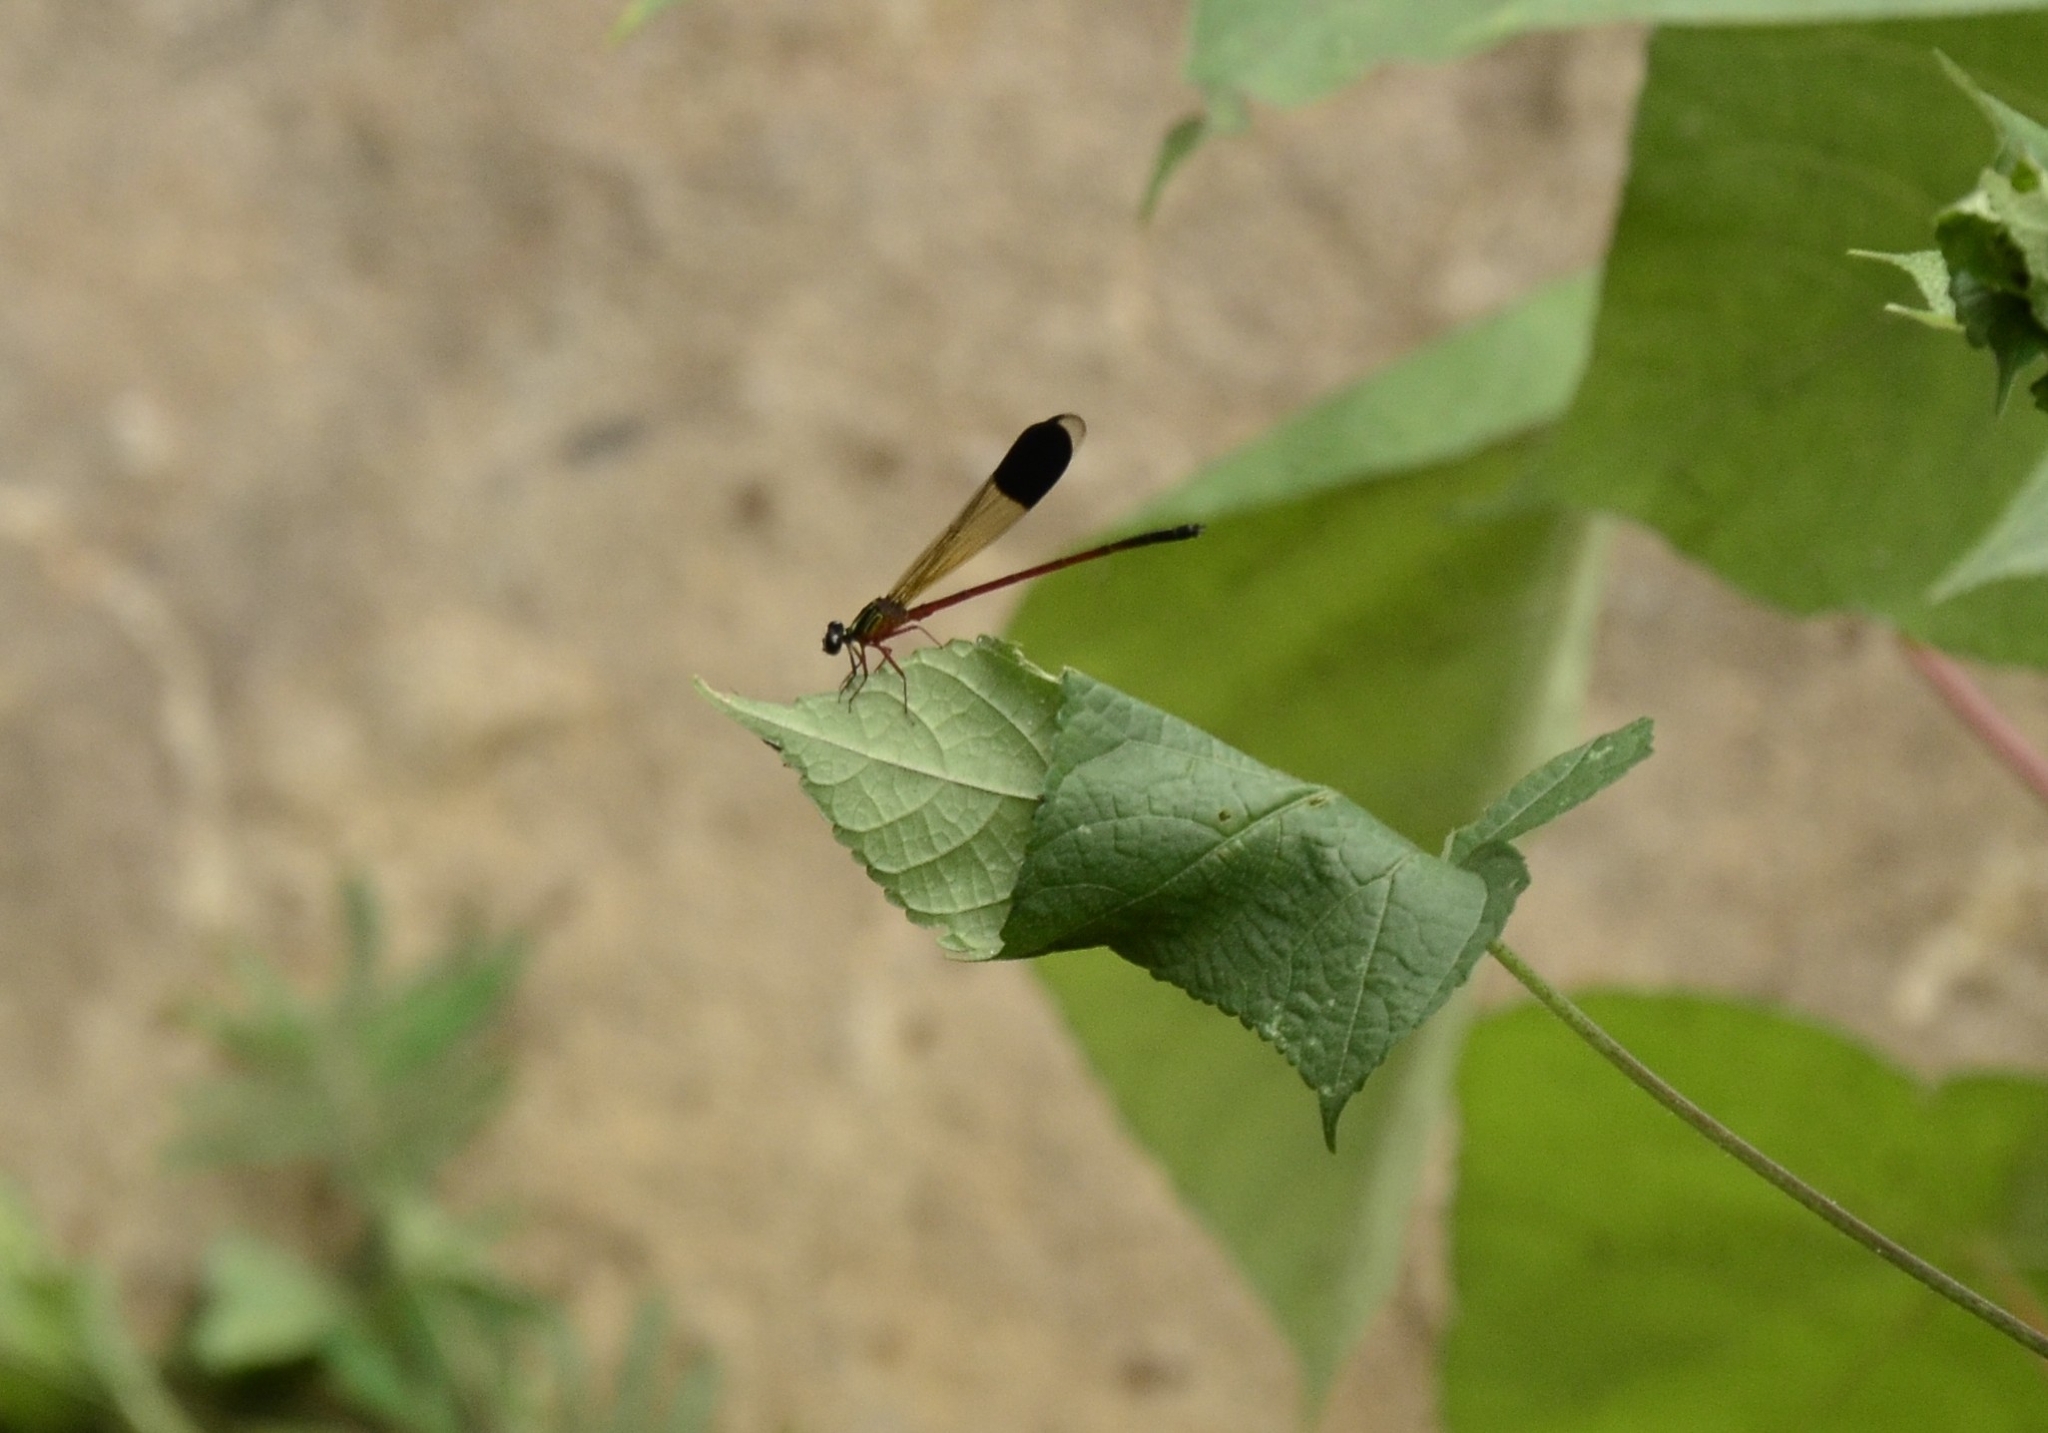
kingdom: Animalia
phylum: Arthropoda
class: Insecta
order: Odonata
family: Euphaeidae
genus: Euphaea
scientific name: Euphaea fraseri
